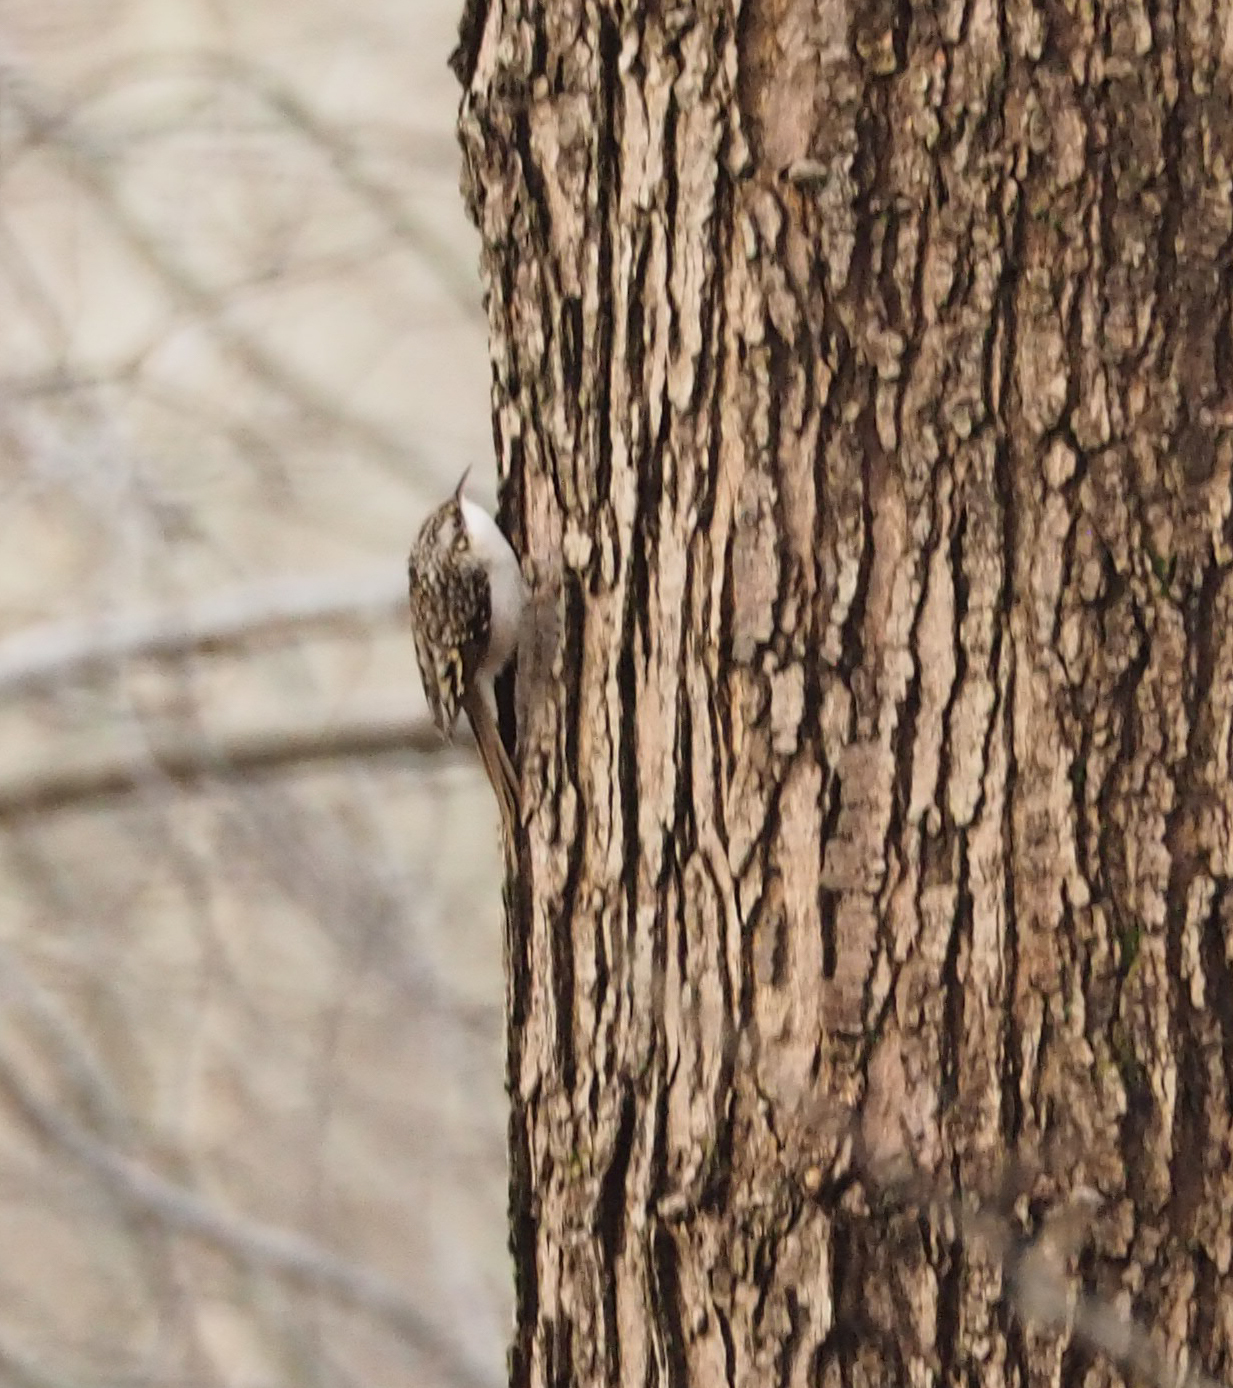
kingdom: Animalia
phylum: Chordata
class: Aves
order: Passeriformes
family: Certhiidae
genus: Certhia
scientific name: Certhia americana
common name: Brown creeper
